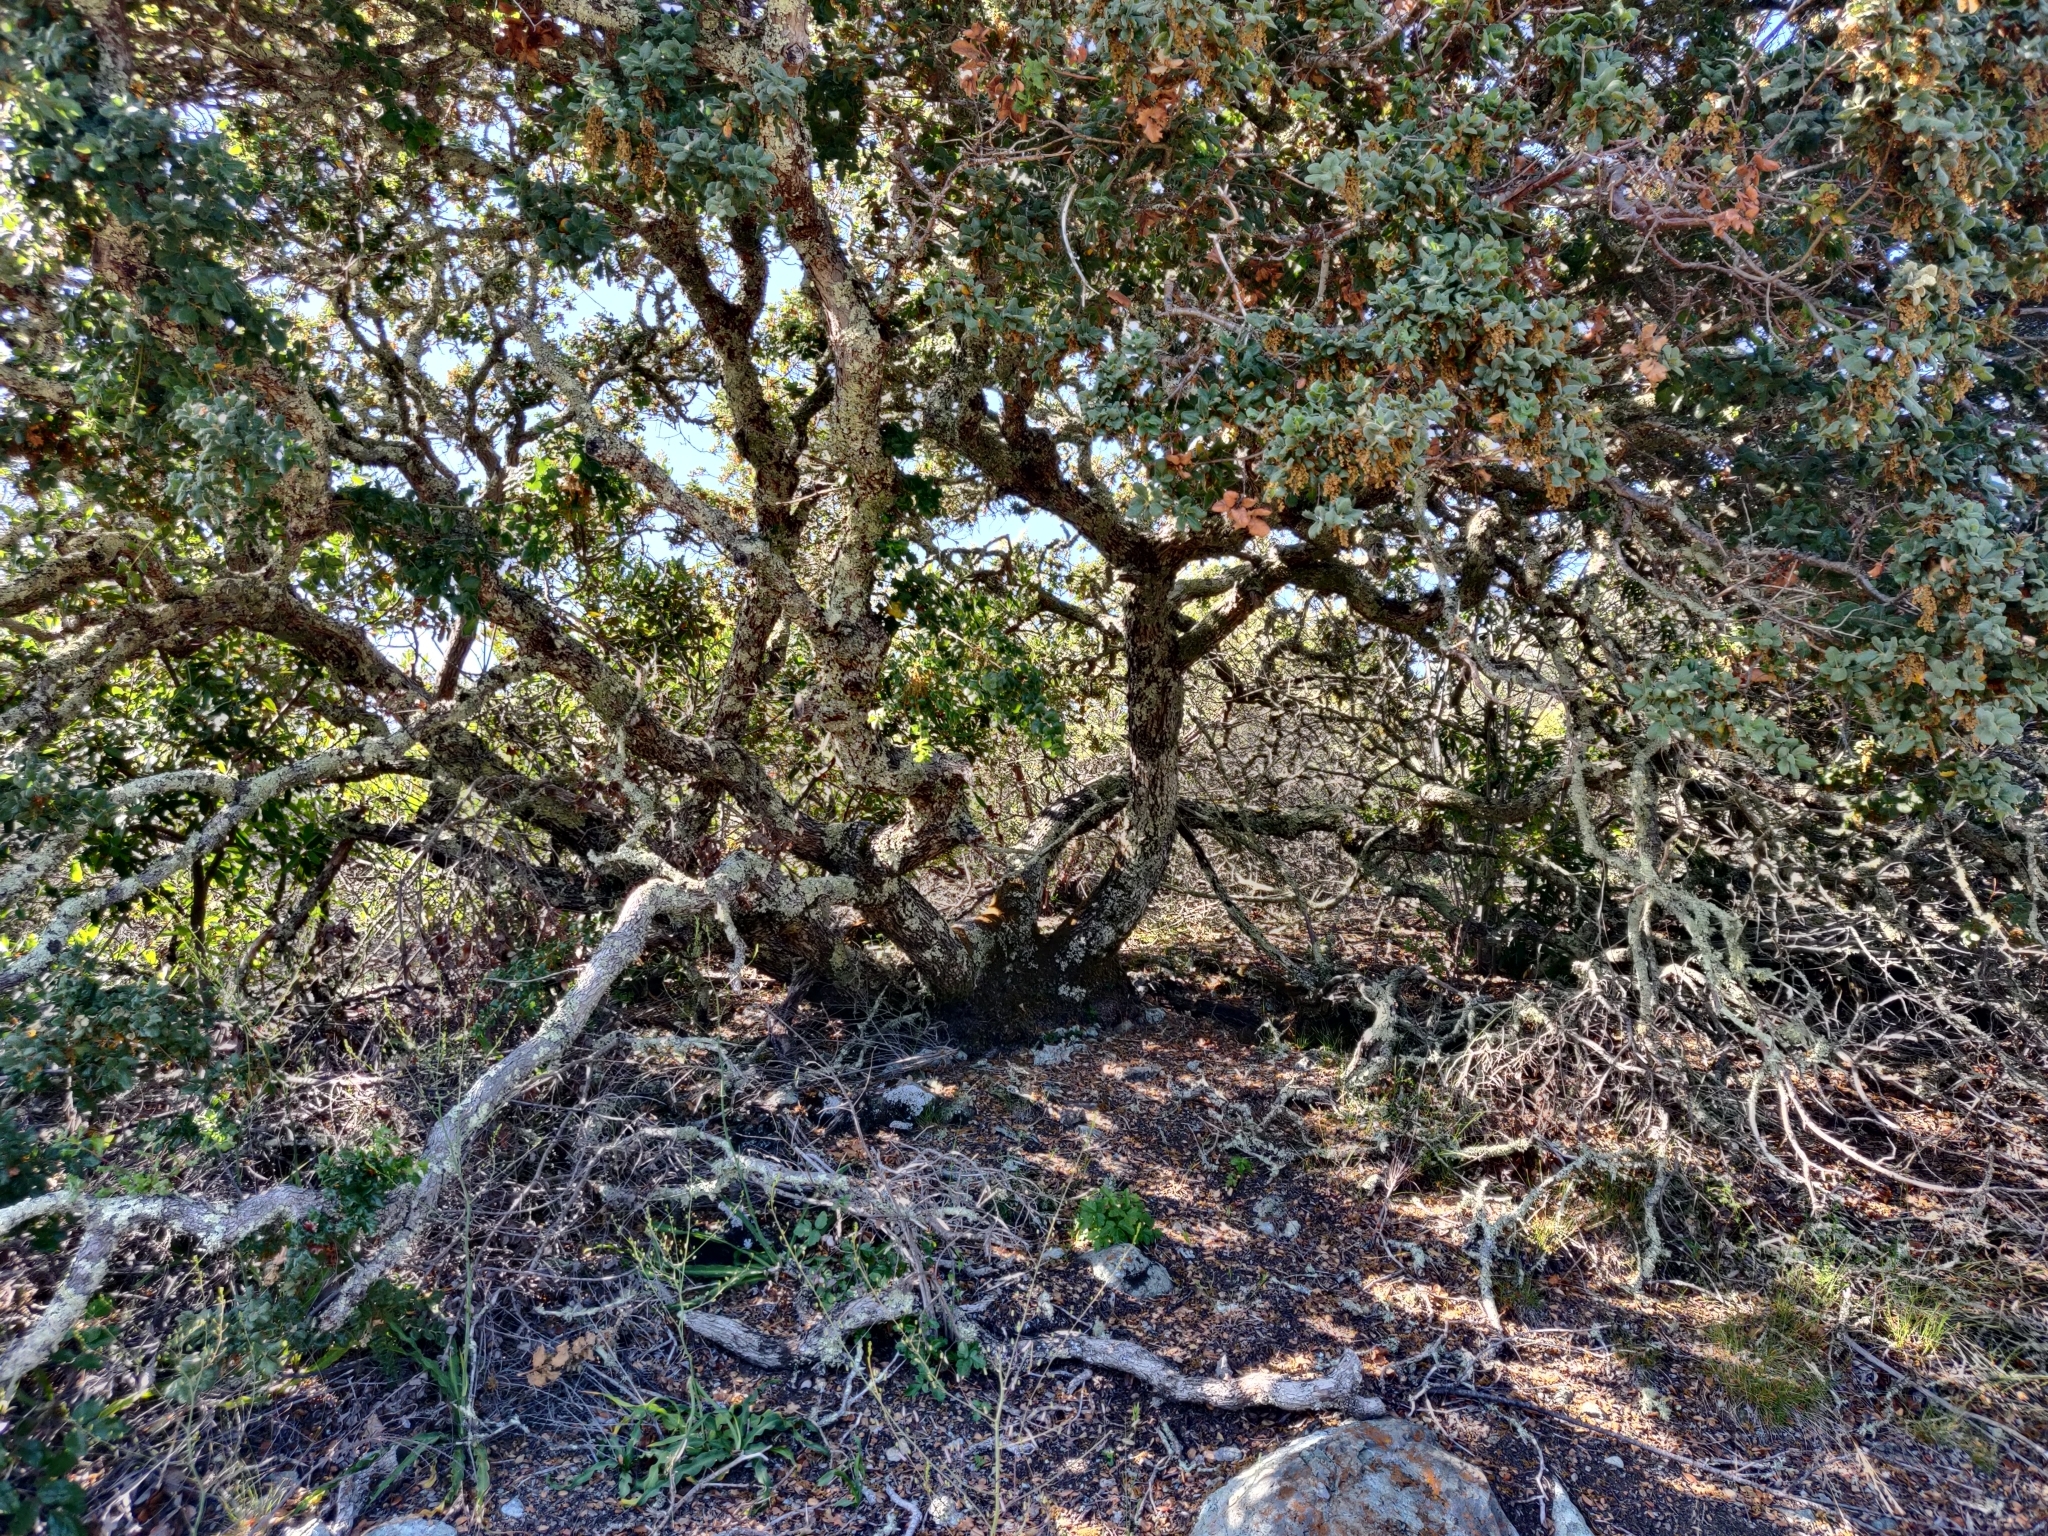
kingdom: Plantae
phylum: Tracheophyta
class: Magnoliopsida
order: Fagales
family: Fagaceae
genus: Quercus
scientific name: Quercus durata
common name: Leather oak
